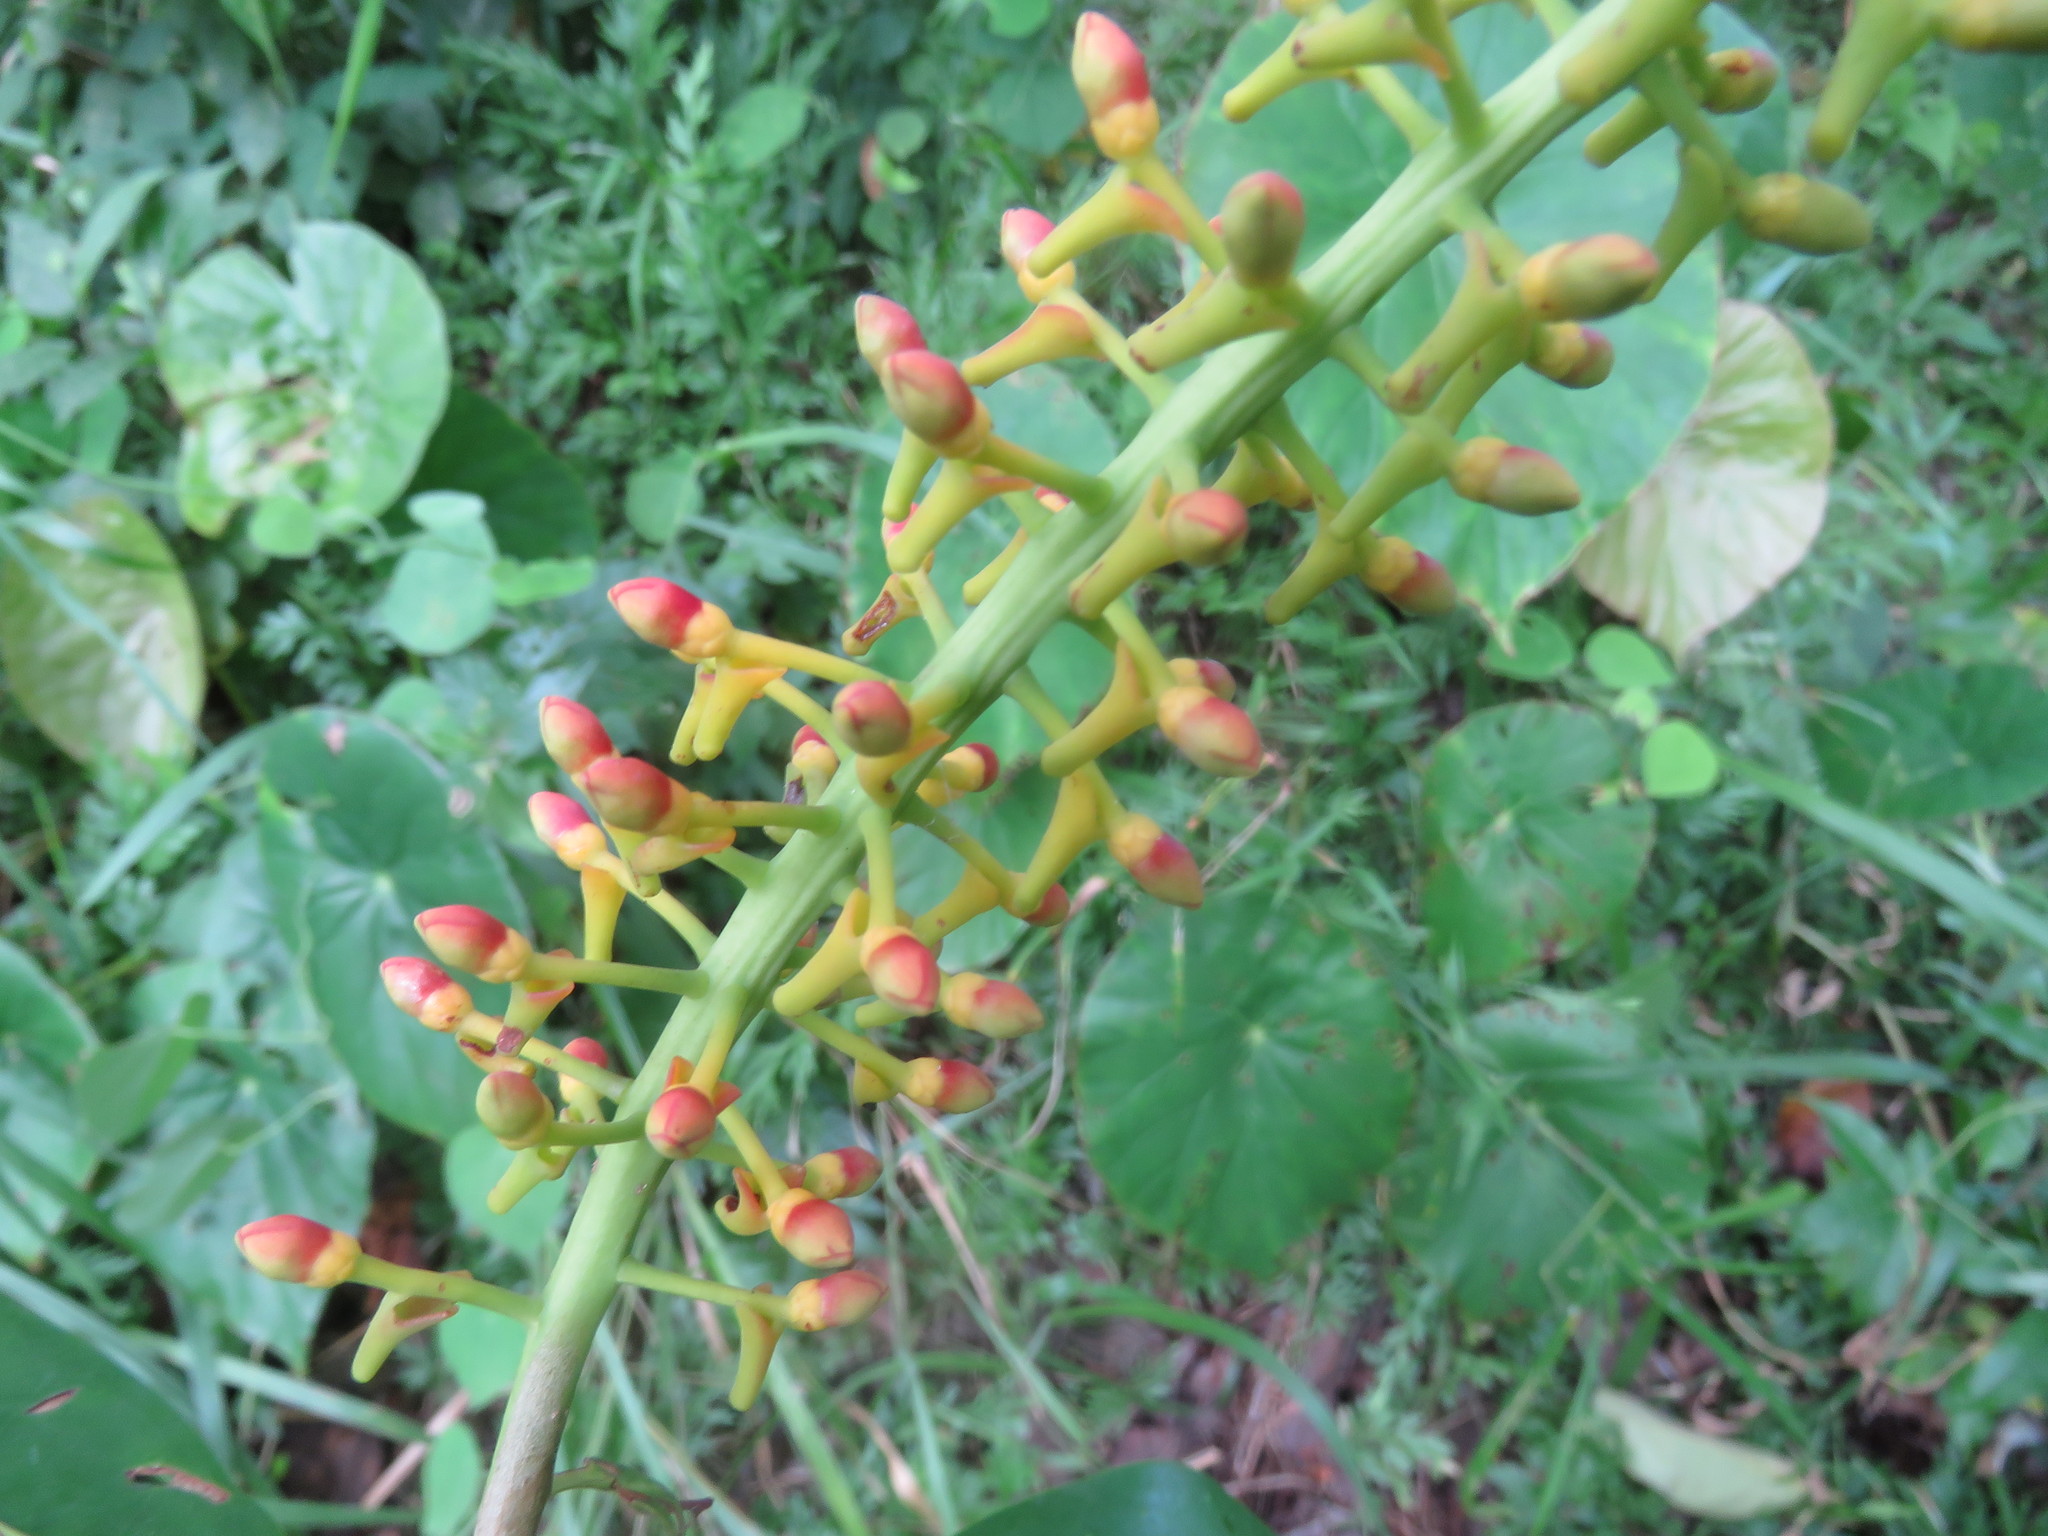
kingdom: Plantae
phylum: Tracheophyta
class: Magnoliopsida
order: Ericales
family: Marcgraviaceae
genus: Souroubea
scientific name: Souroubea loczyi
